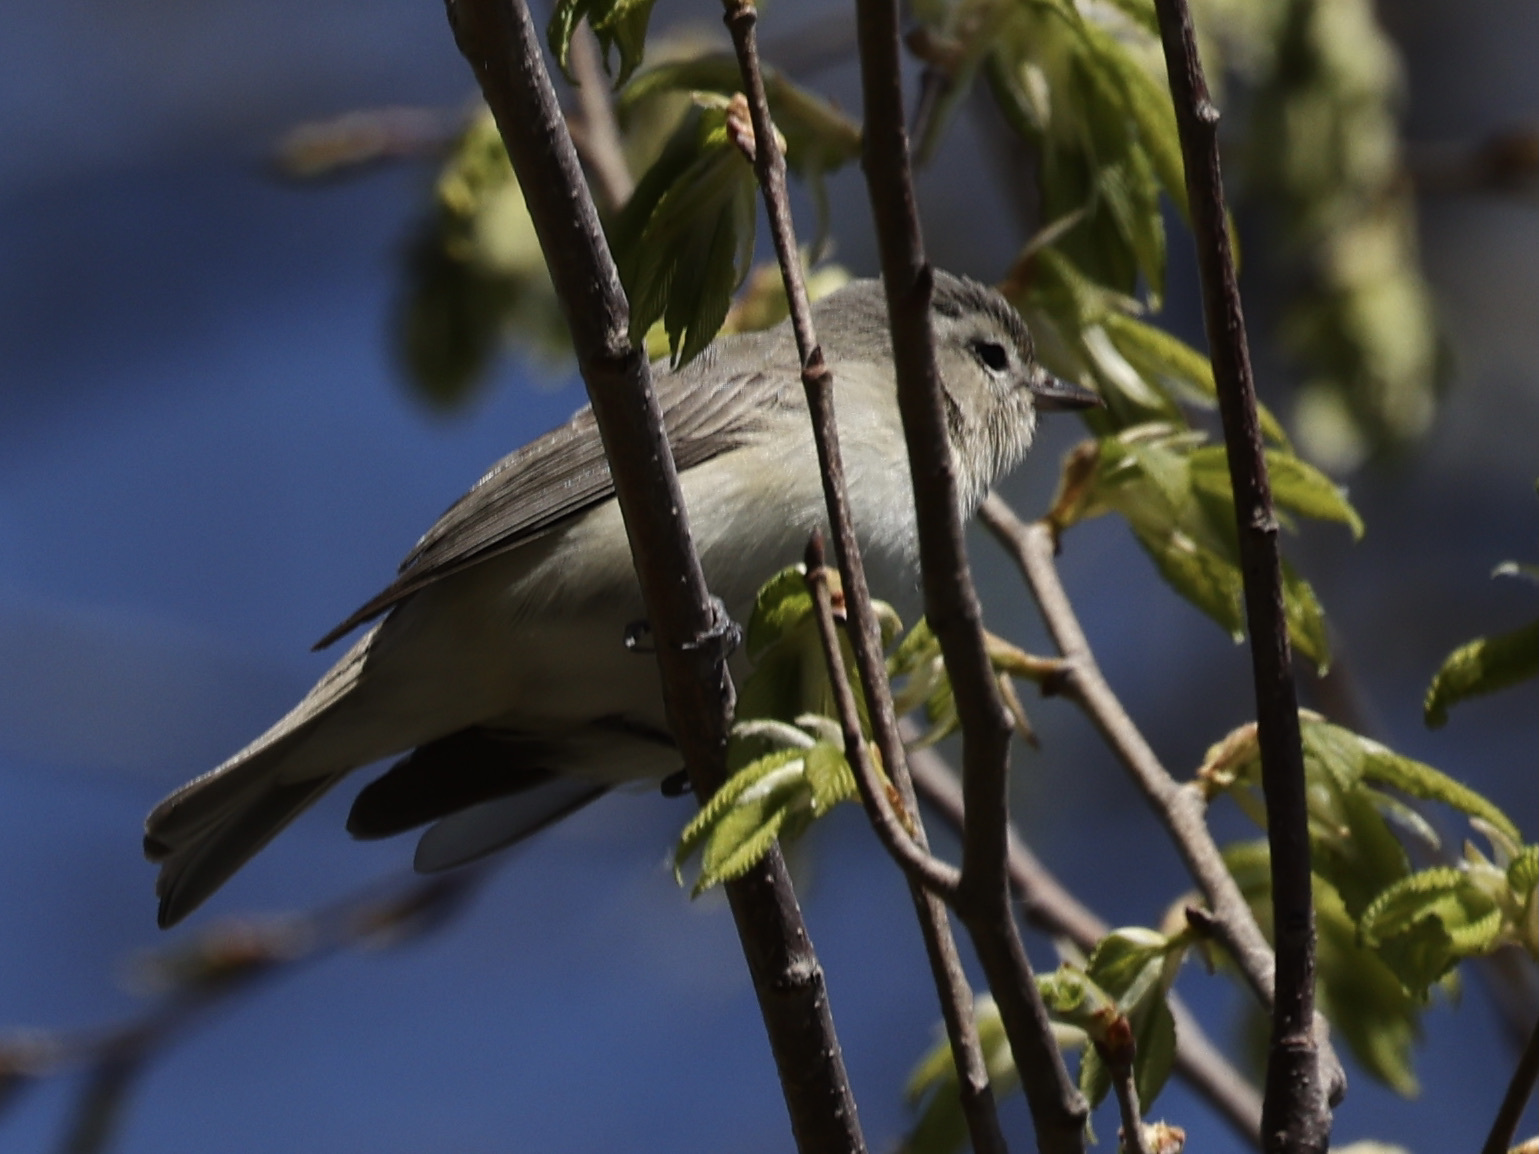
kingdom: Animalia
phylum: Chordata
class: Aves
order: Passeriformes
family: Vireonidae
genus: Vireo
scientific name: Vireo gilvus
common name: Warbling vireo
